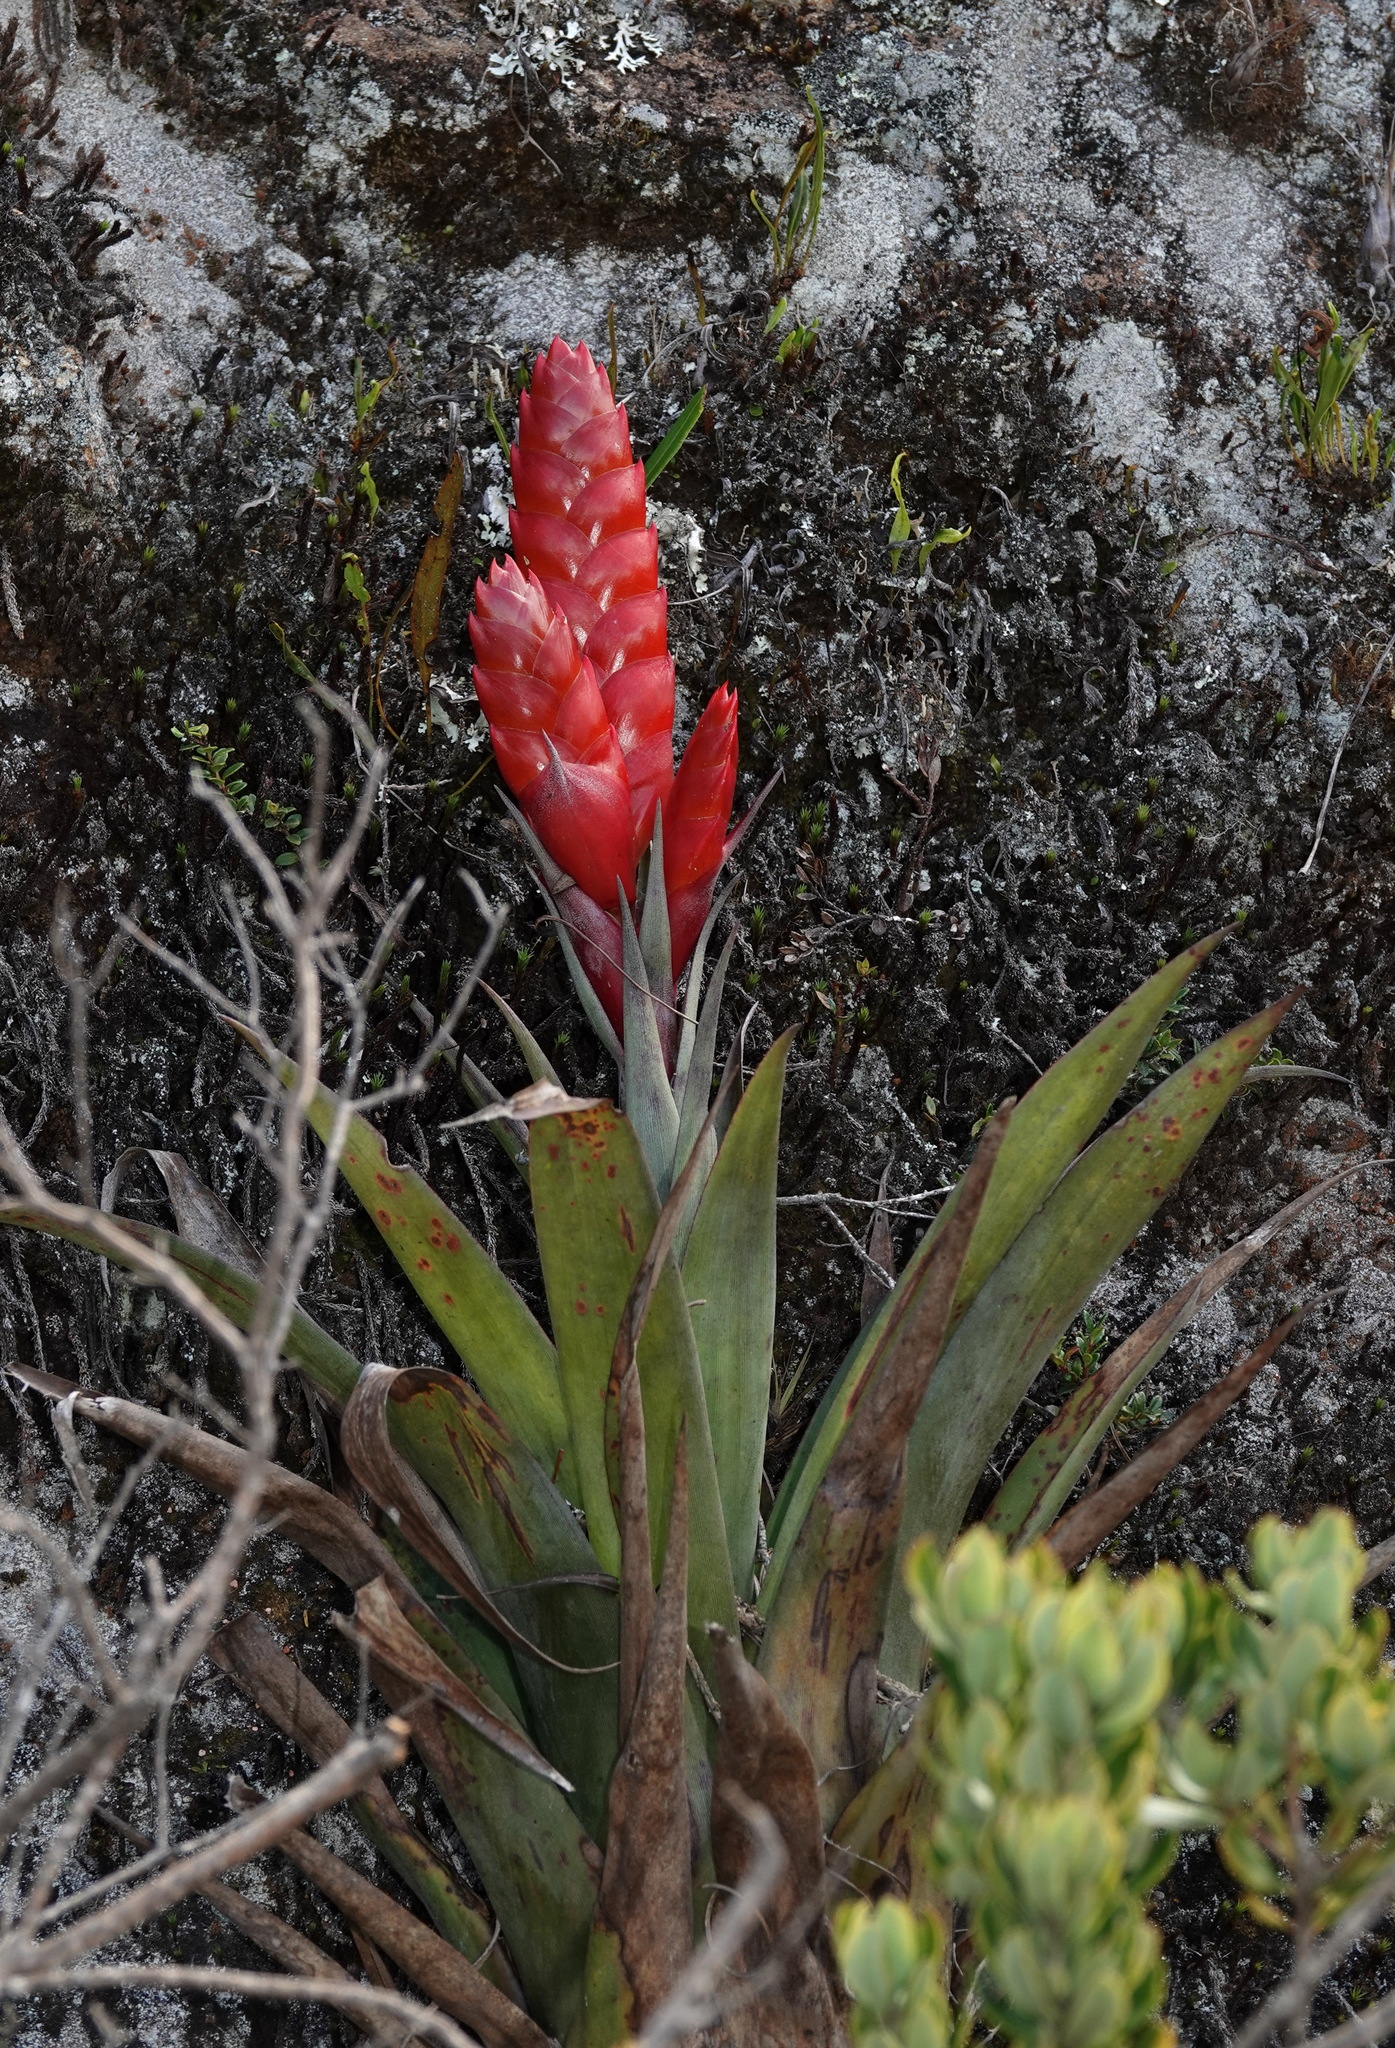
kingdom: Plantae
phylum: Tracheophyta
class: Liliopsida
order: Poales
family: Bromeliaceae
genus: Tillandsia
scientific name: Tillandsia romeroi
